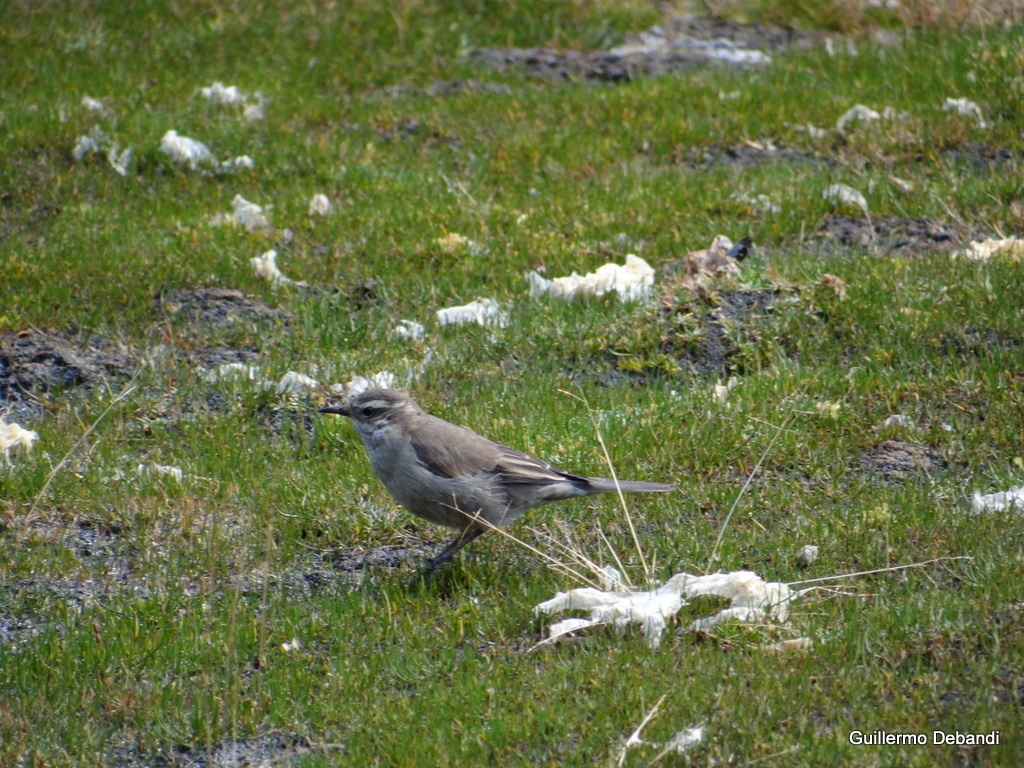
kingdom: Animalia
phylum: Chordata
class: Aves
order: Passeriformes
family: Furnariidae
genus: Cinclodes
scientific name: Cinclodes fuscus
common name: Buff-winged cinclodes
